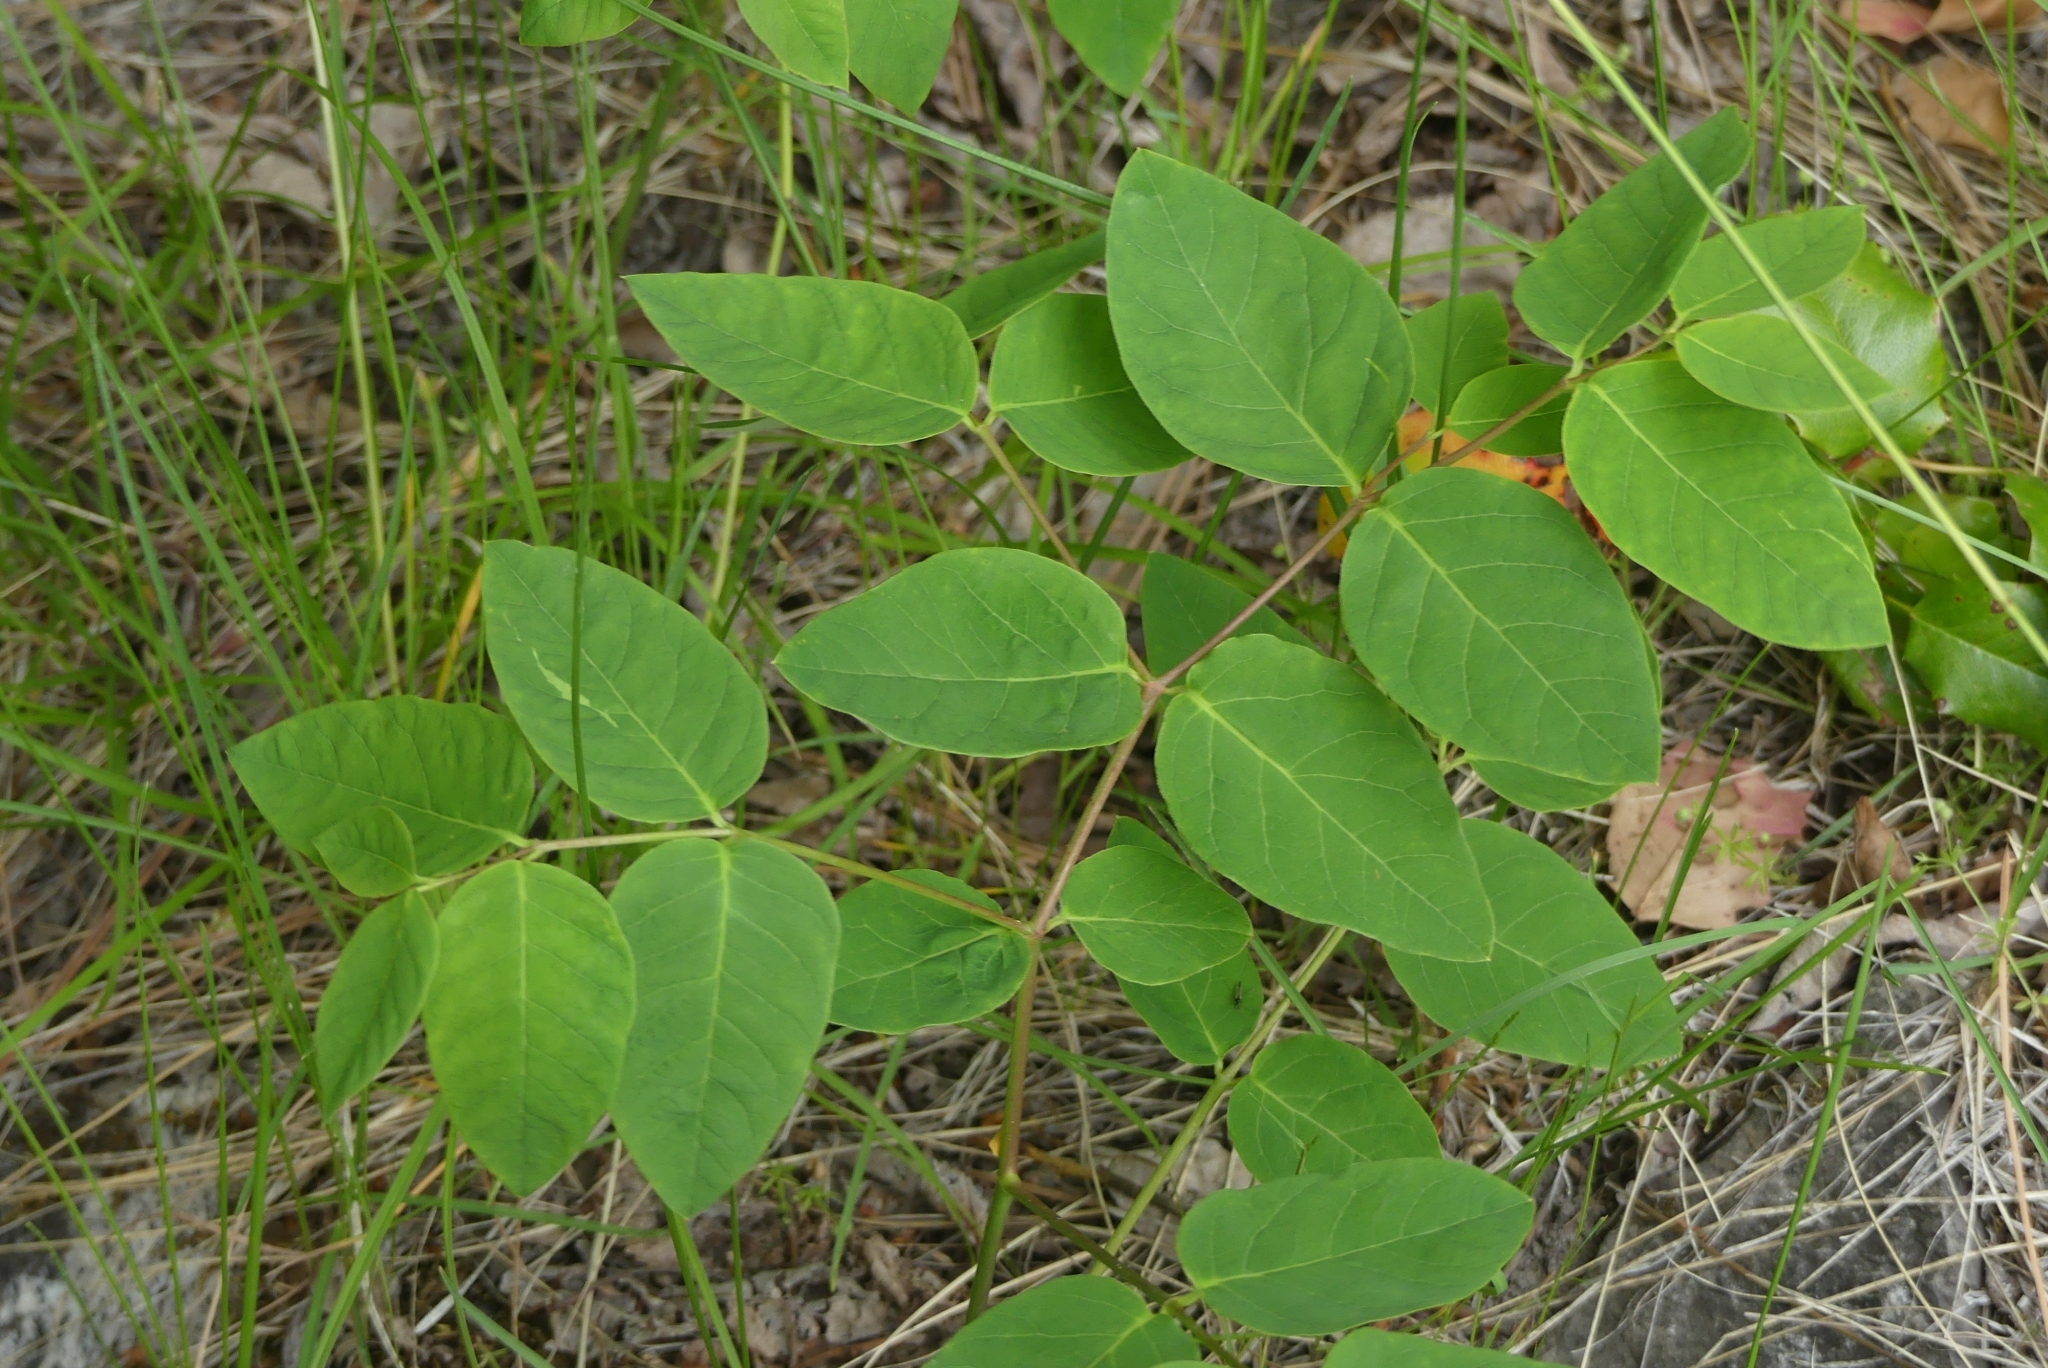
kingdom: Plantae
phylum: Tracheophyta
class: Magnoliopsida
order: Gentianales
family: Apocynaceae
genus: Apocynum
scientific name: Apocynum androsaemifolium
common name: Spreading dogbane
